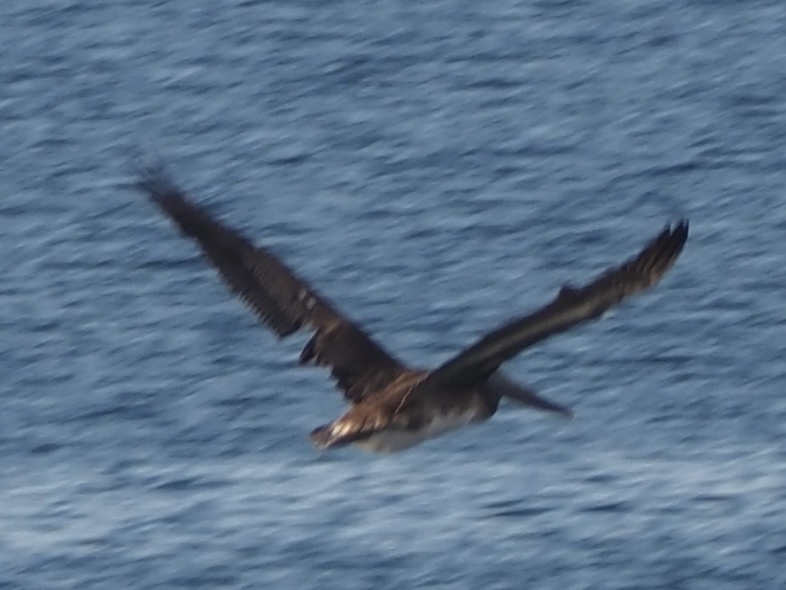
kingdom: Animalia
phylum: Chordata
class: Aves
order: Pelecaniformes
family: Pelecanidae
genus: Pelecanus
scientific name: Pelecanus occidentalis
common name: Brown pelican
